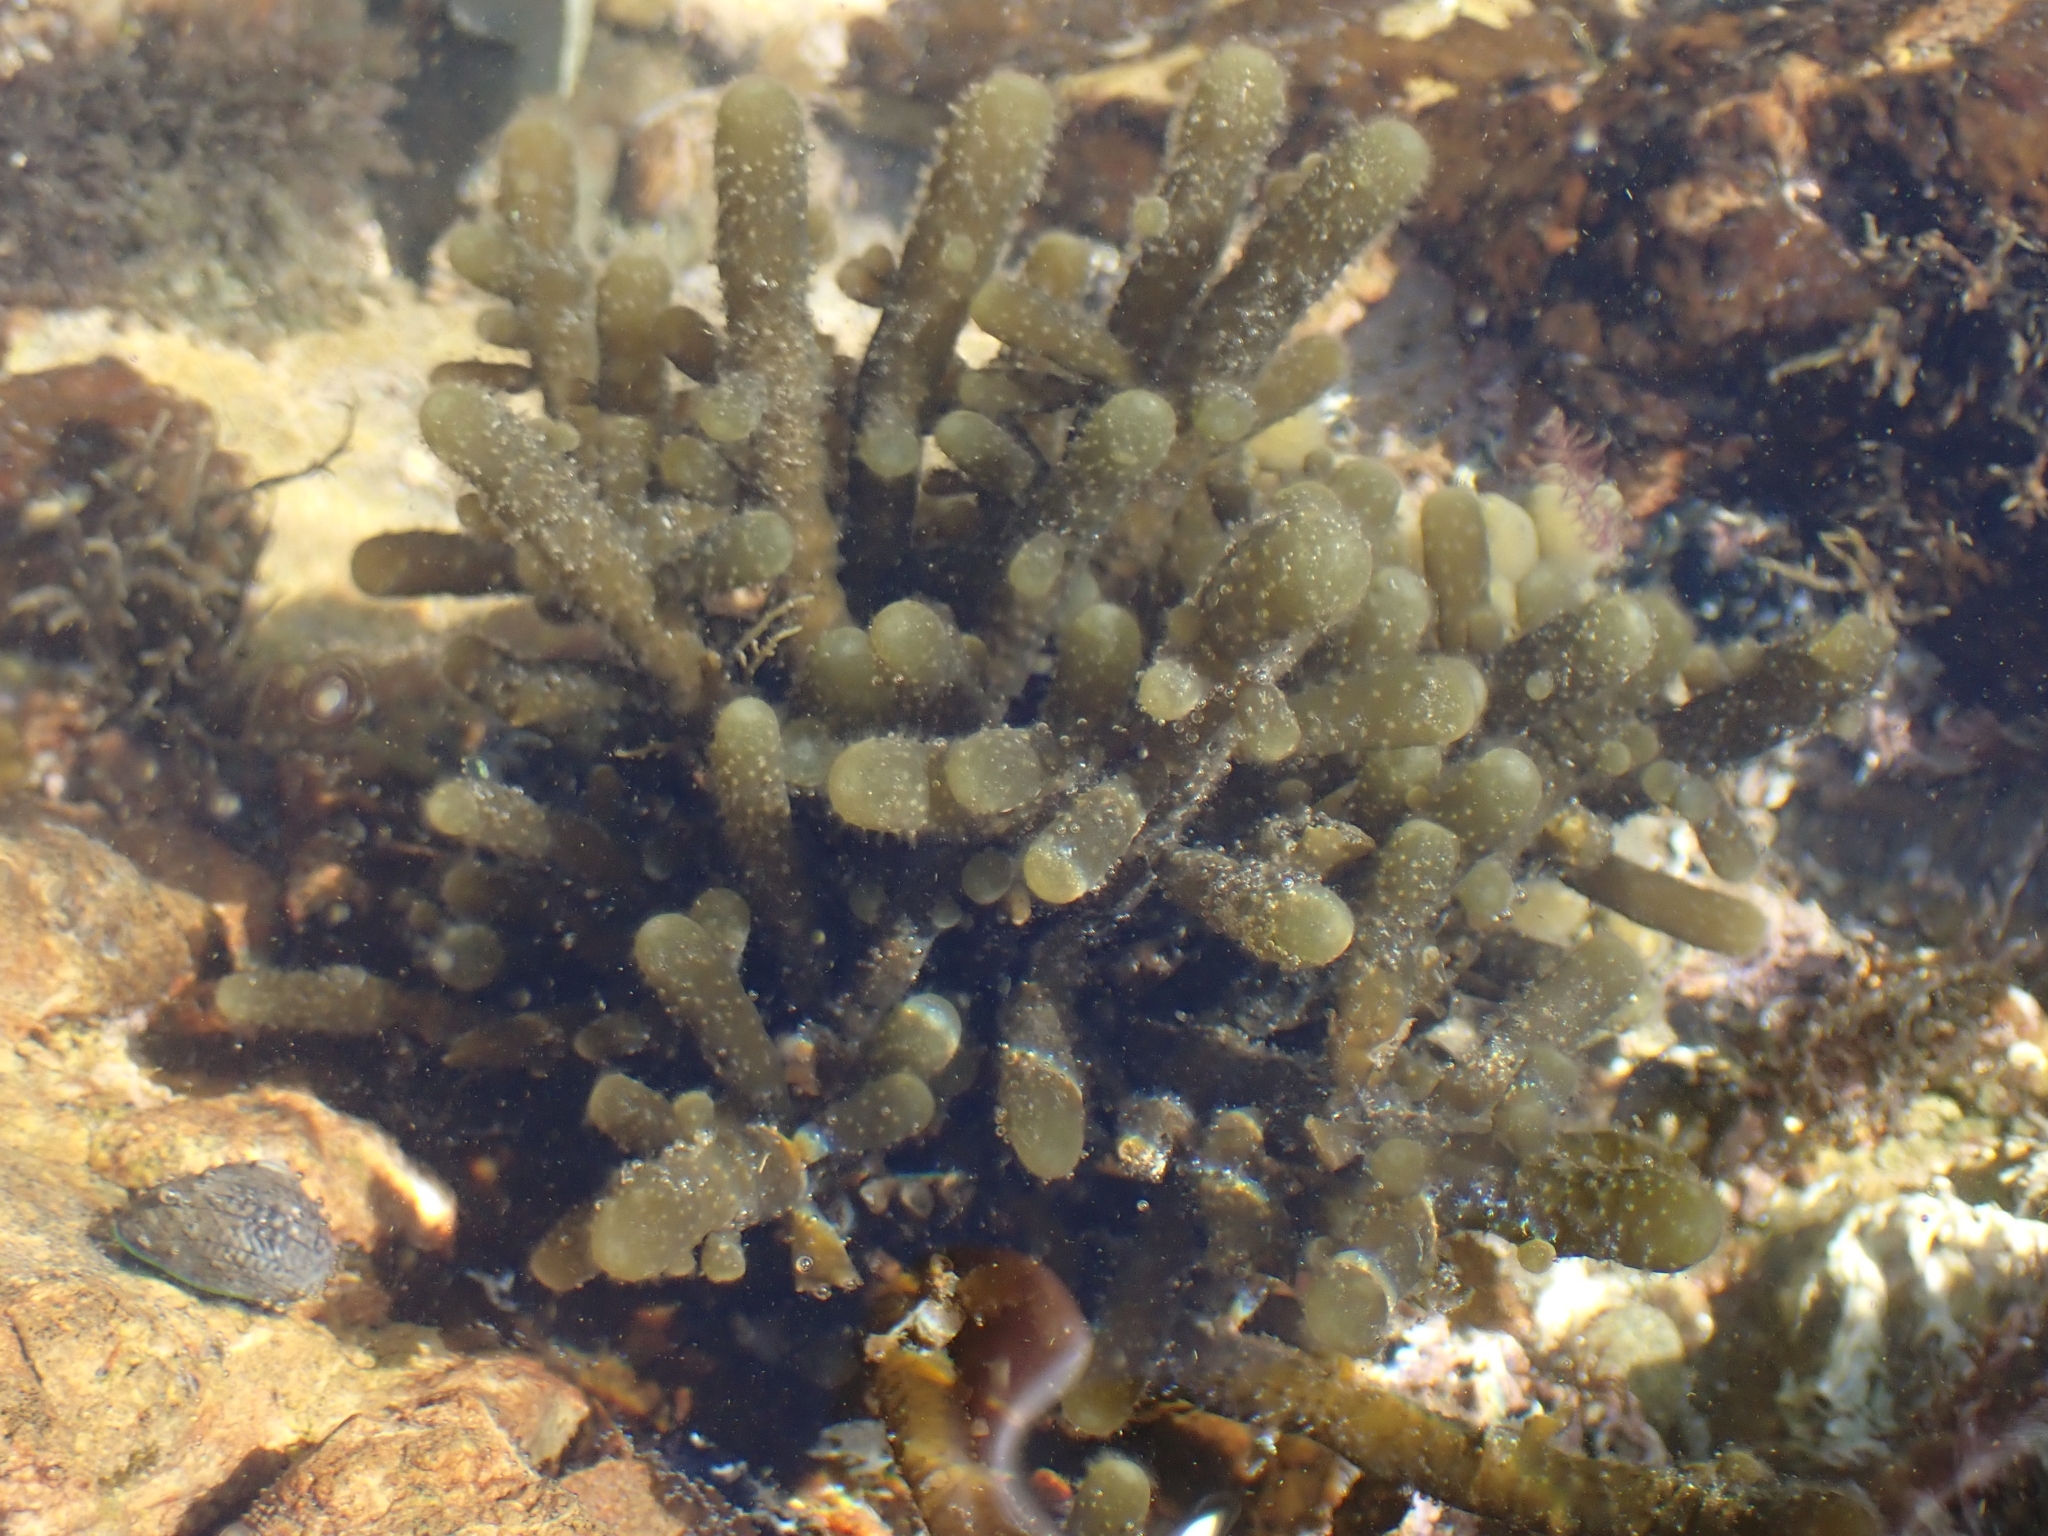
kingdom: Chromista
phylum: Ochrophyta
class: Phaeophyceae
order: Scytothamnales
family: Splachnidiaceae
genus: Splachnidium
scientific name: Splachnidium rugosum
